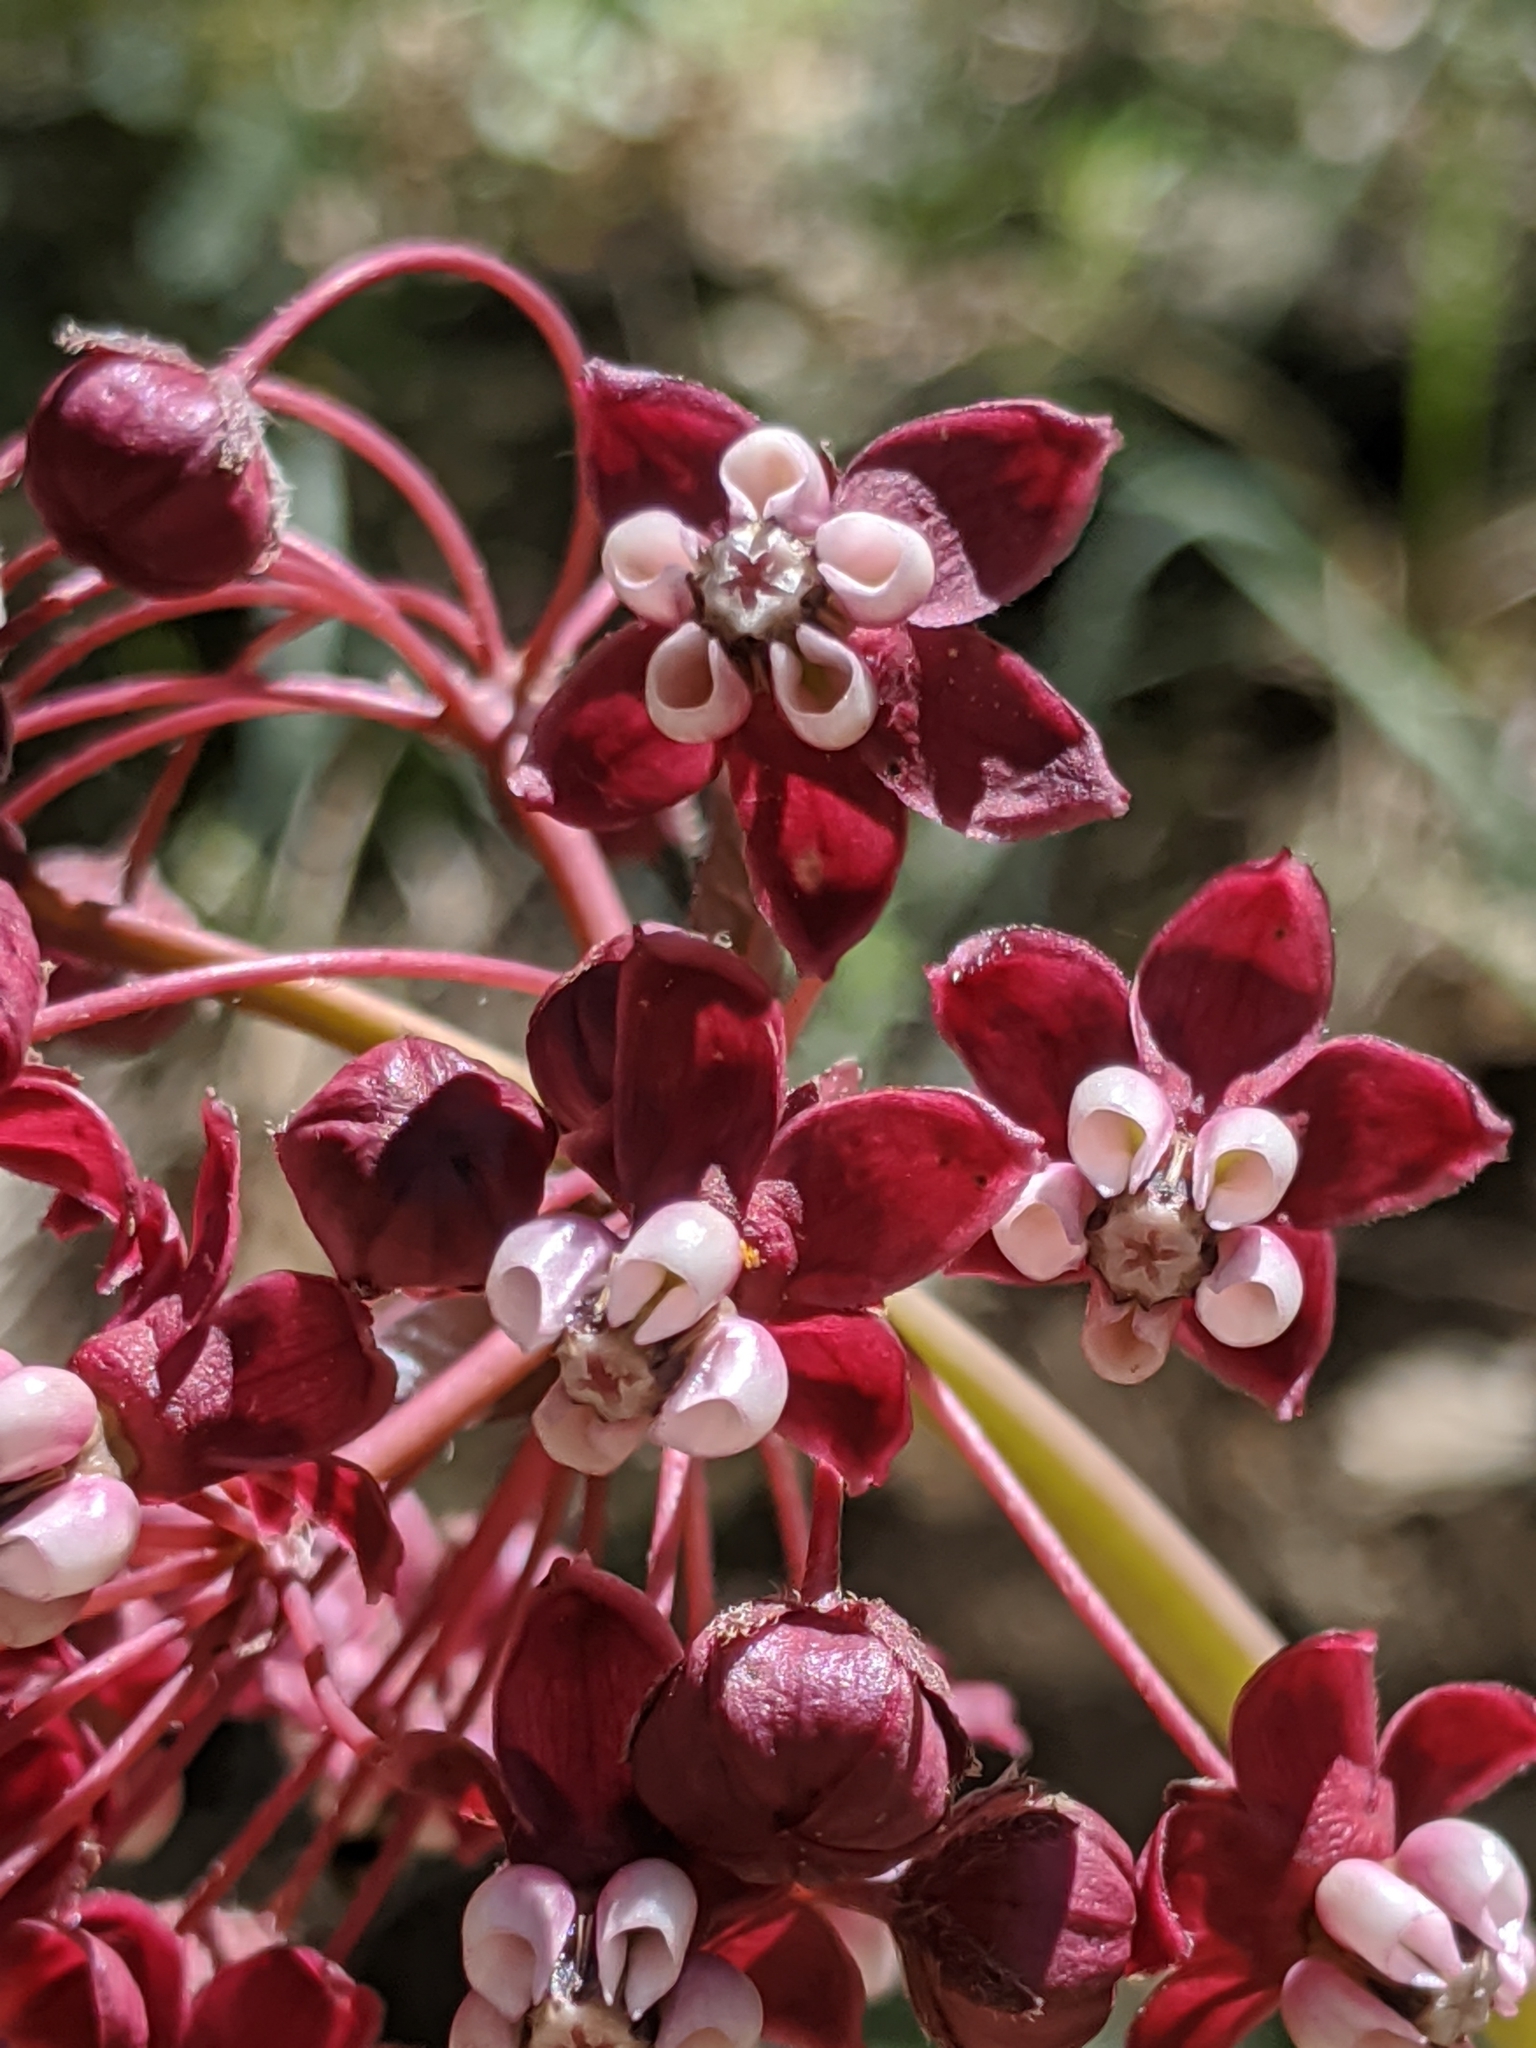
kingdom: Plantae
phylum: Tracheophyta
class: Magnoliopsida
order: Gentianales
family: Apocynaceae
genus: Asclepias
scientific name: Asclepias cordifolia
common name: Purple milkweed
